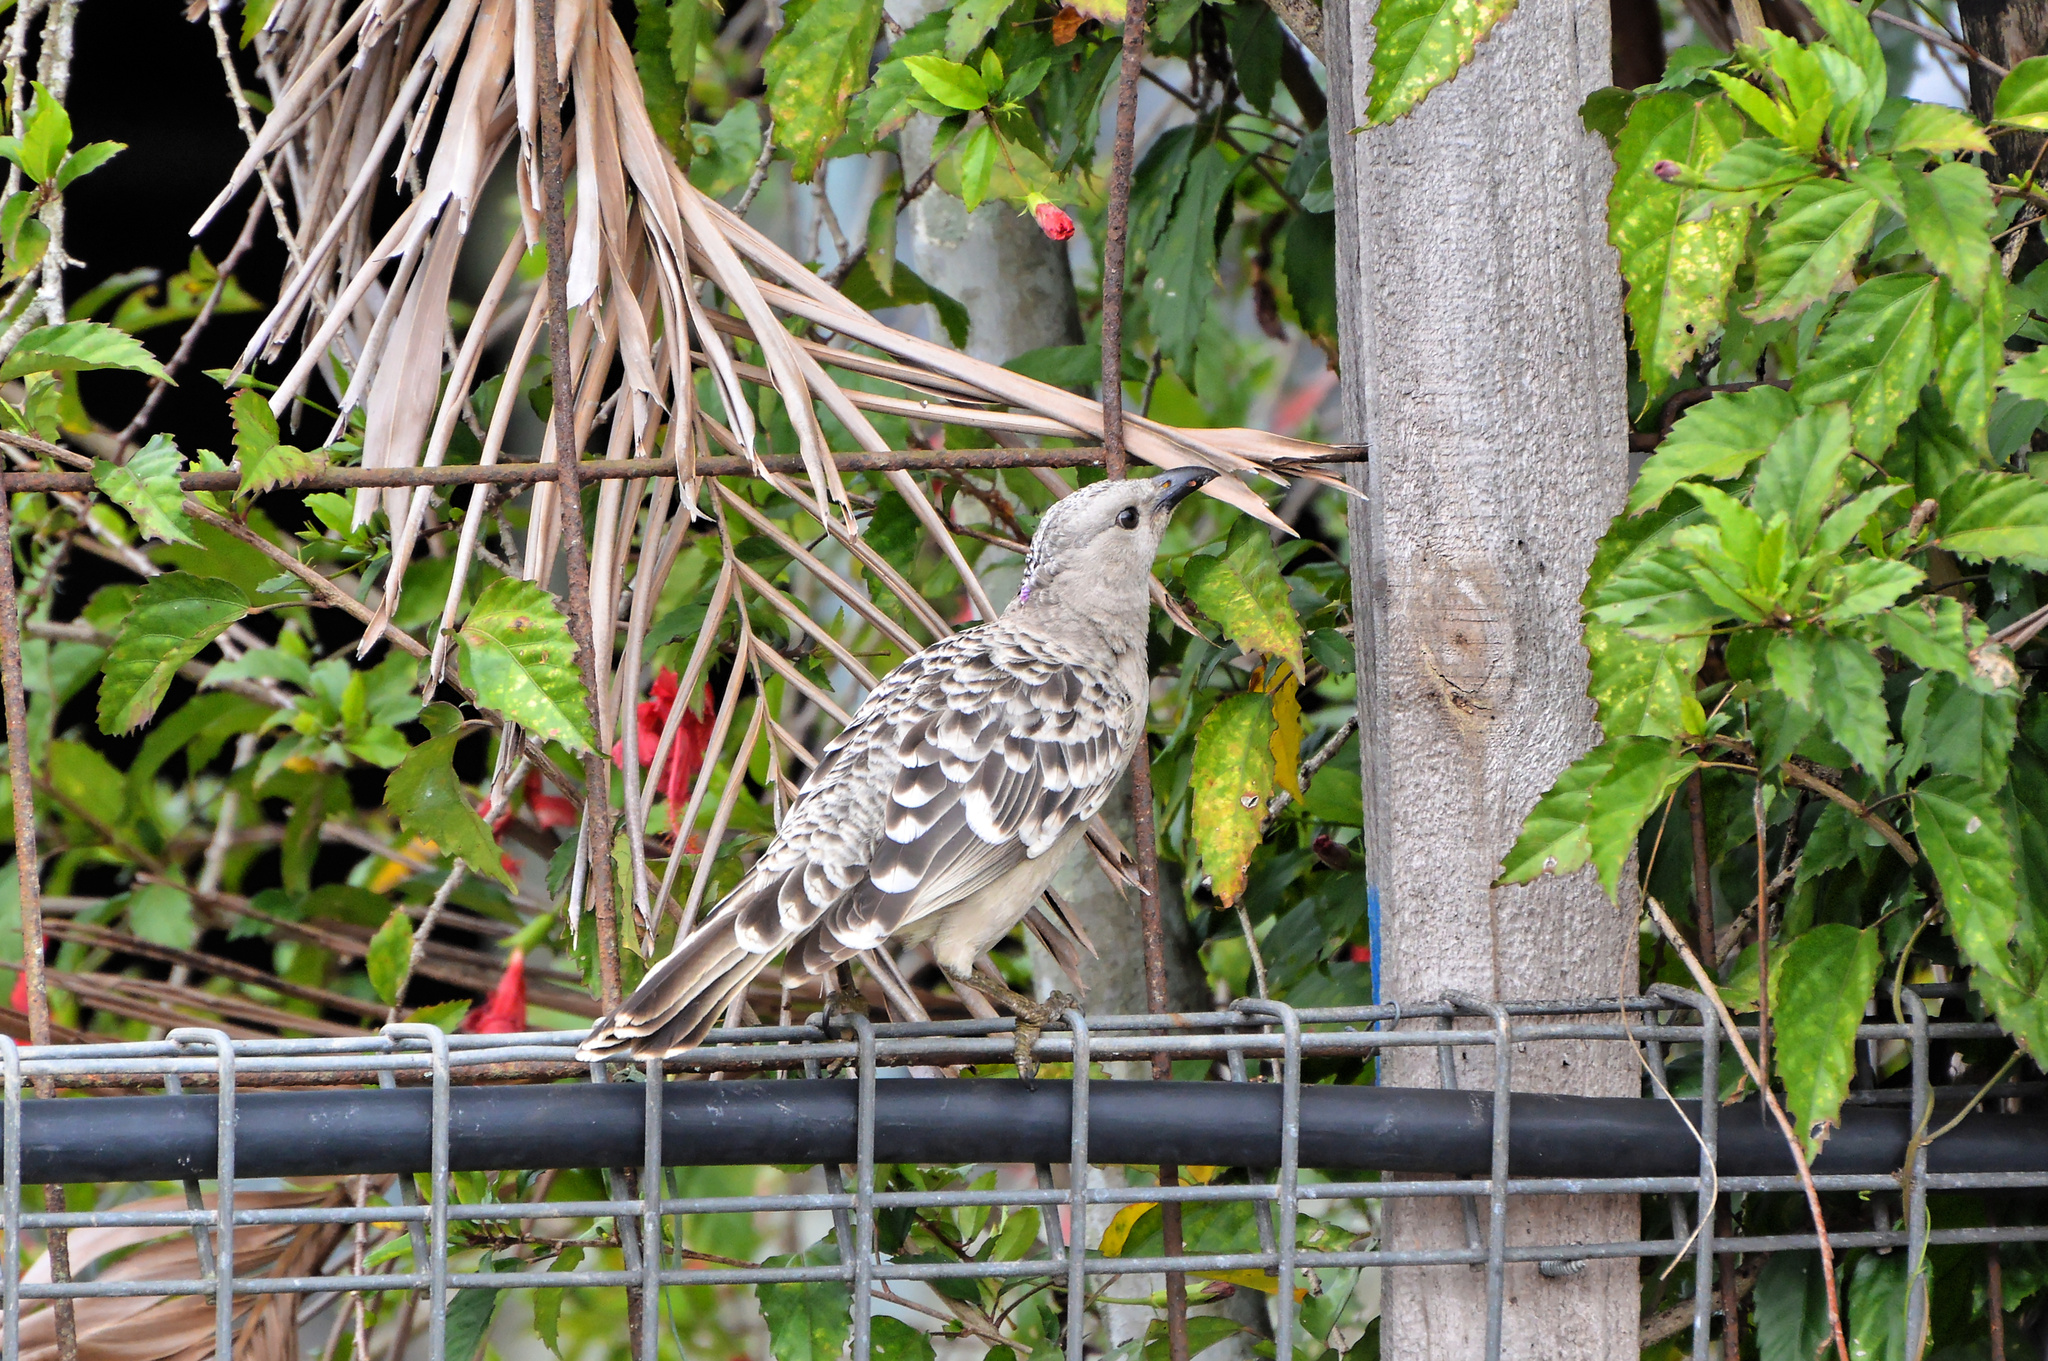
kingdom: Animalia
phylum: Chordata
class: Aves
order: Passeriformes
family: Ptilonorhynchidae
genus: Chlamydera
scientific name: Chlamydera nuchalis
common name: Great bowerbird
